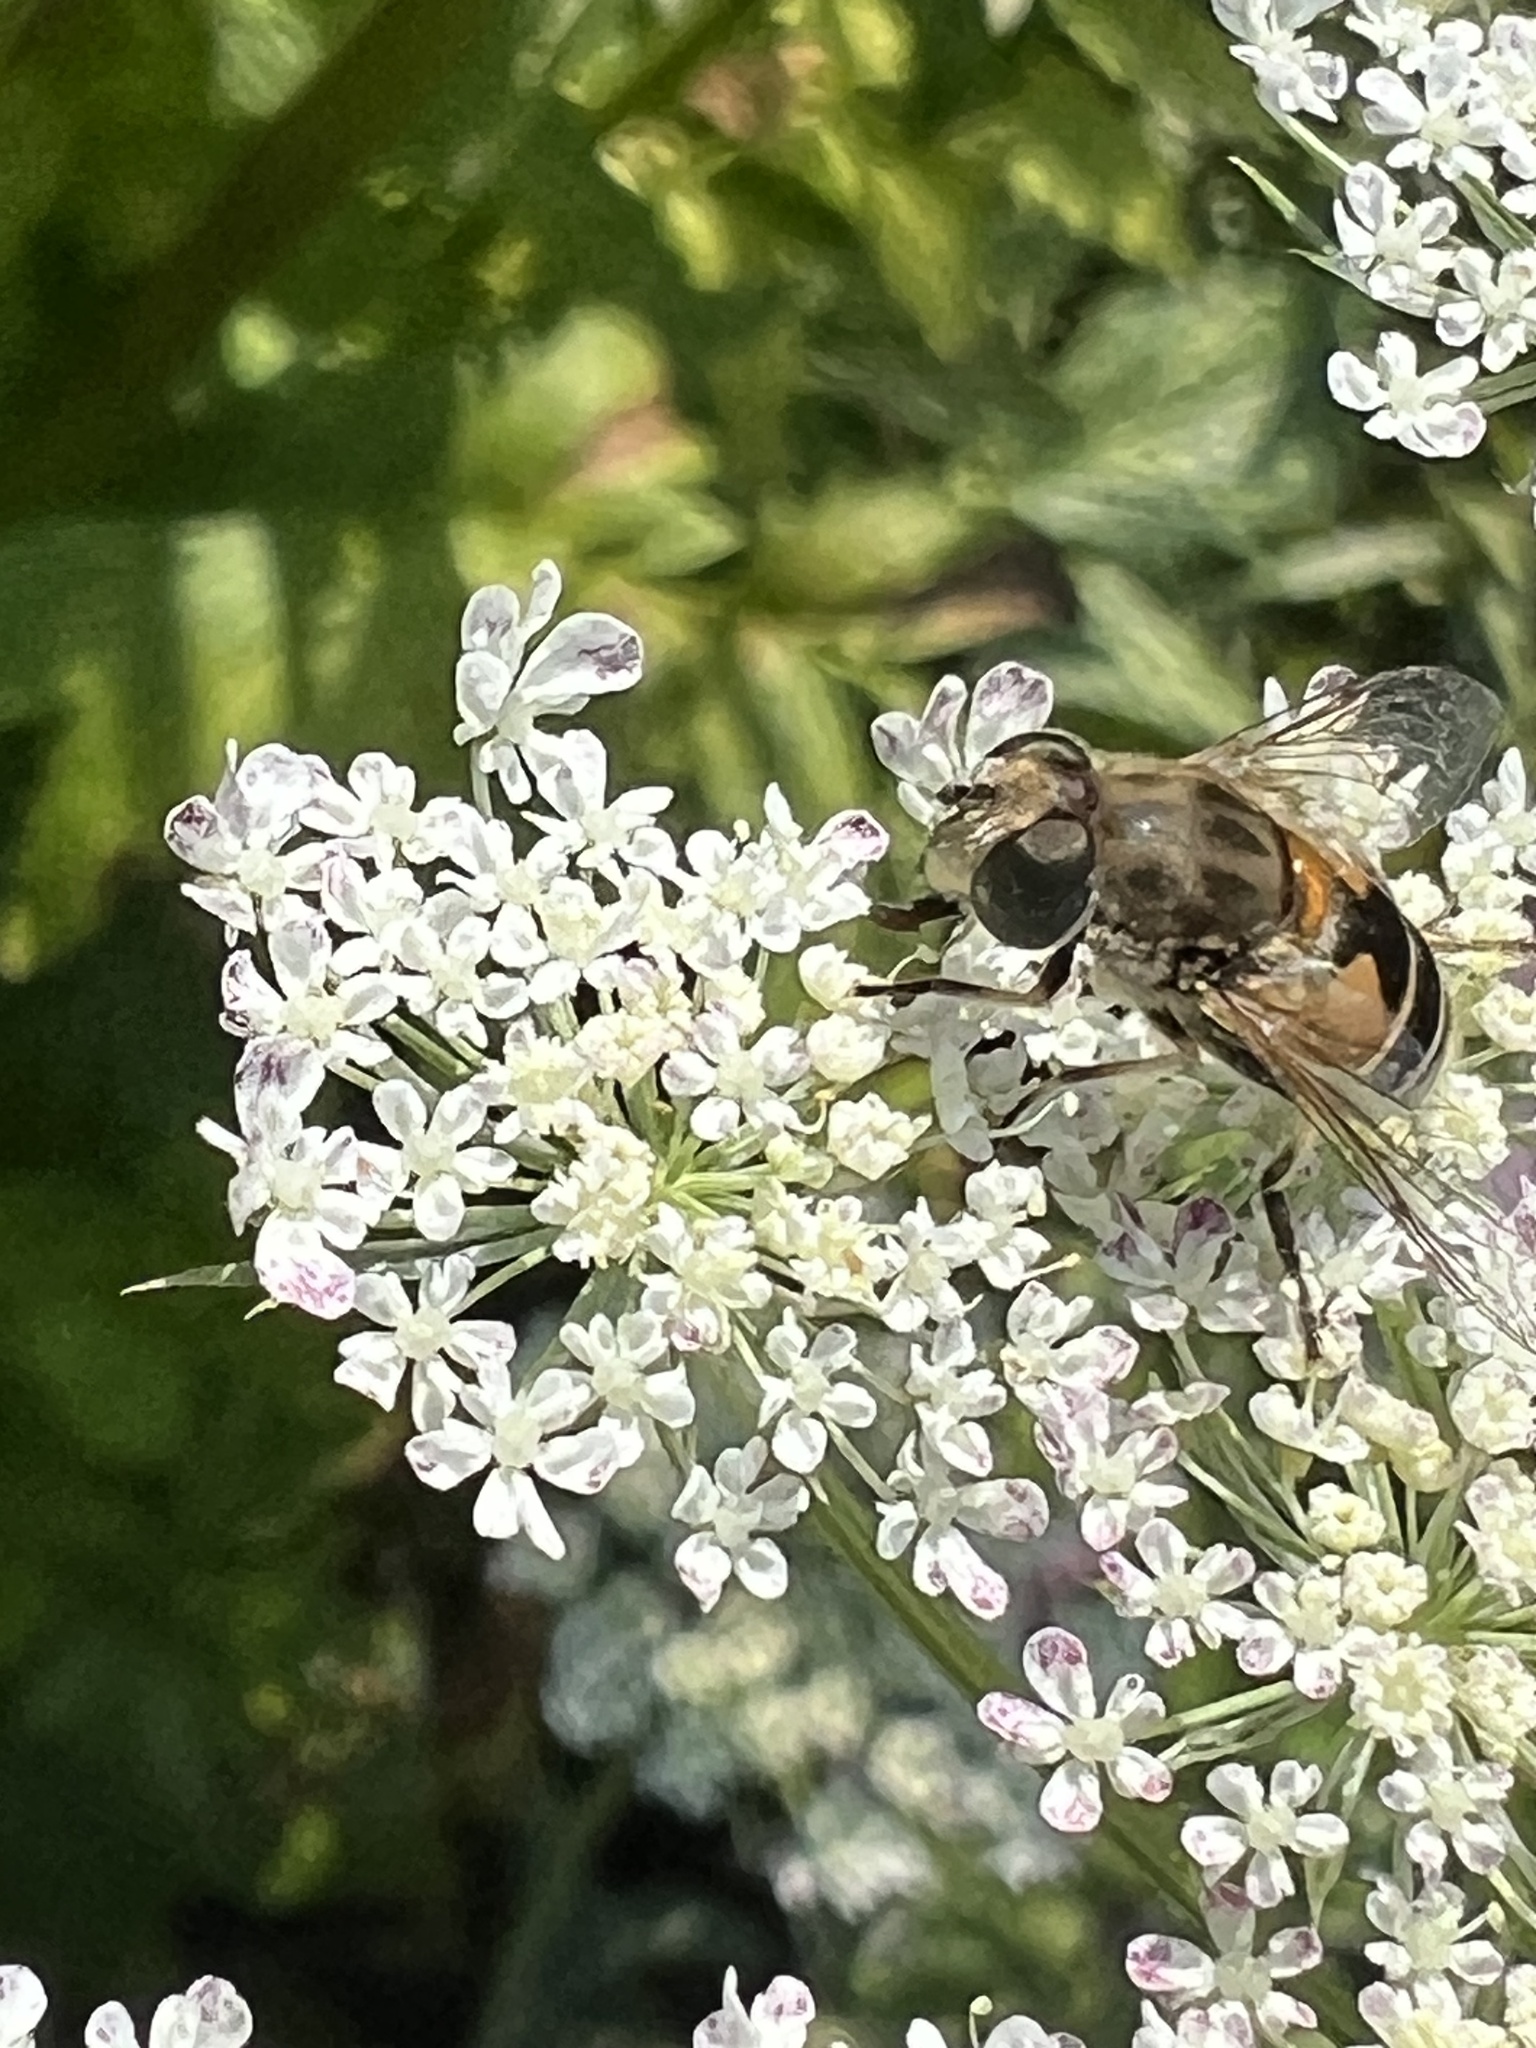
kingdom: Animalia
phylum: Arthropoda
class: Insecta
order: Diptera
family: Syrphidae
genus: Eristalis
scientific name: Eristalis arbustorum
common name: Hover fly
